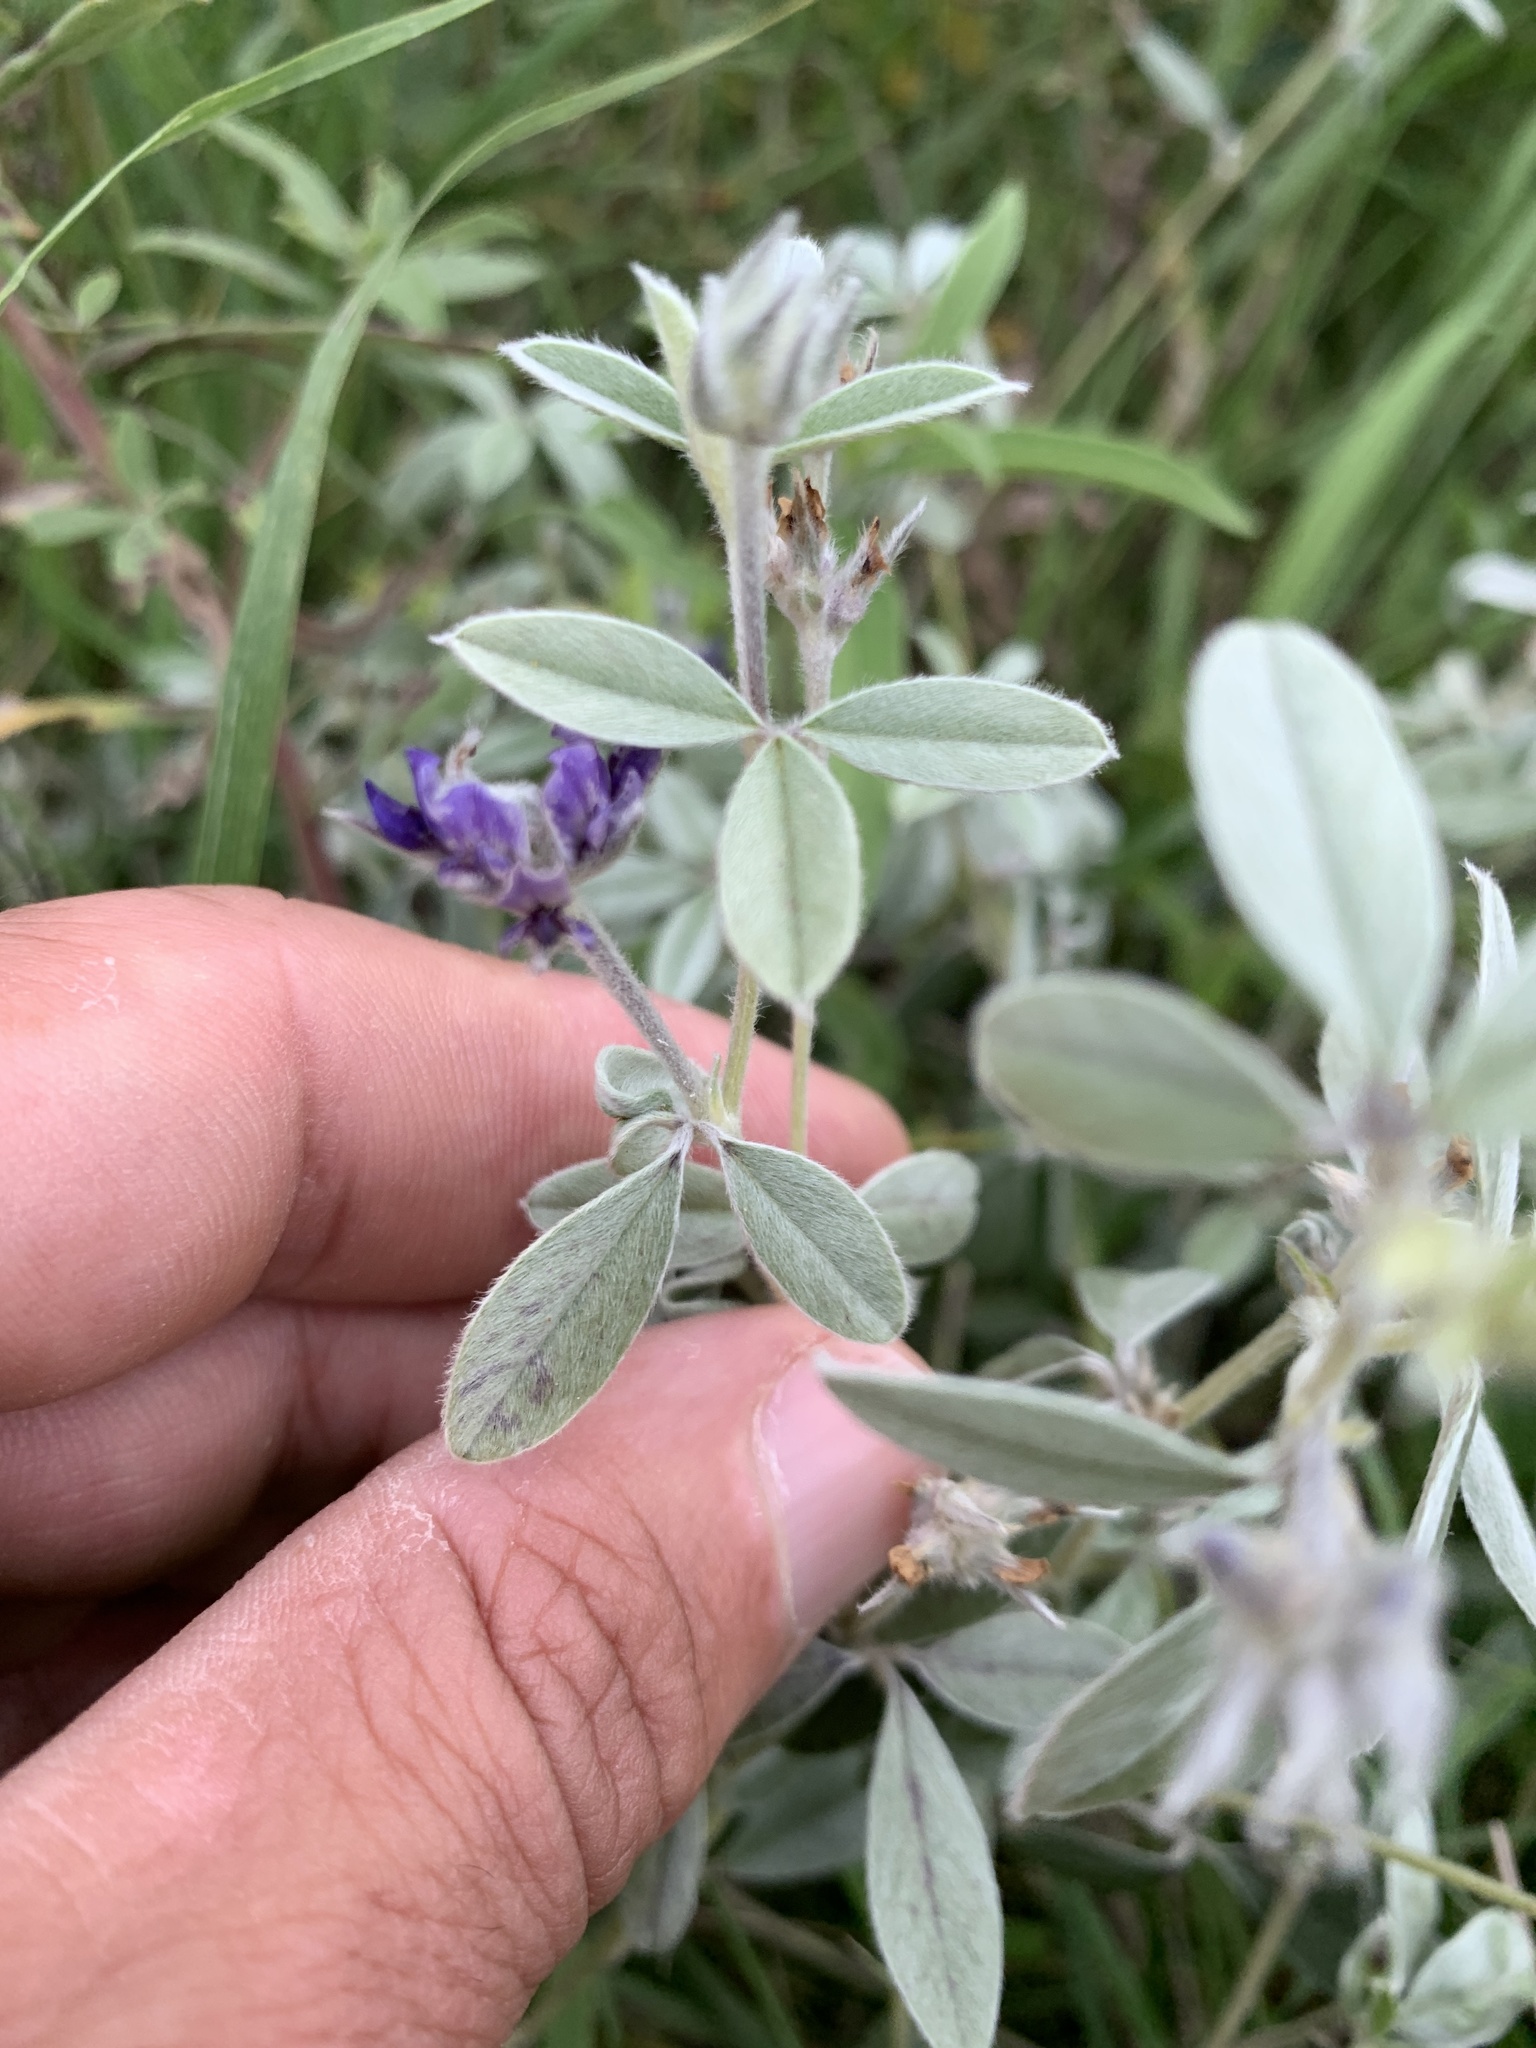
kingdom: Plantae
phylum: Tracheophyta
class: Magnoliopsida
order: Fabales
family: Fabaceae
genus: Pediomelum
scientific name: Pediomelum argophyllum
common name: Silver-leaved indian breadroot
